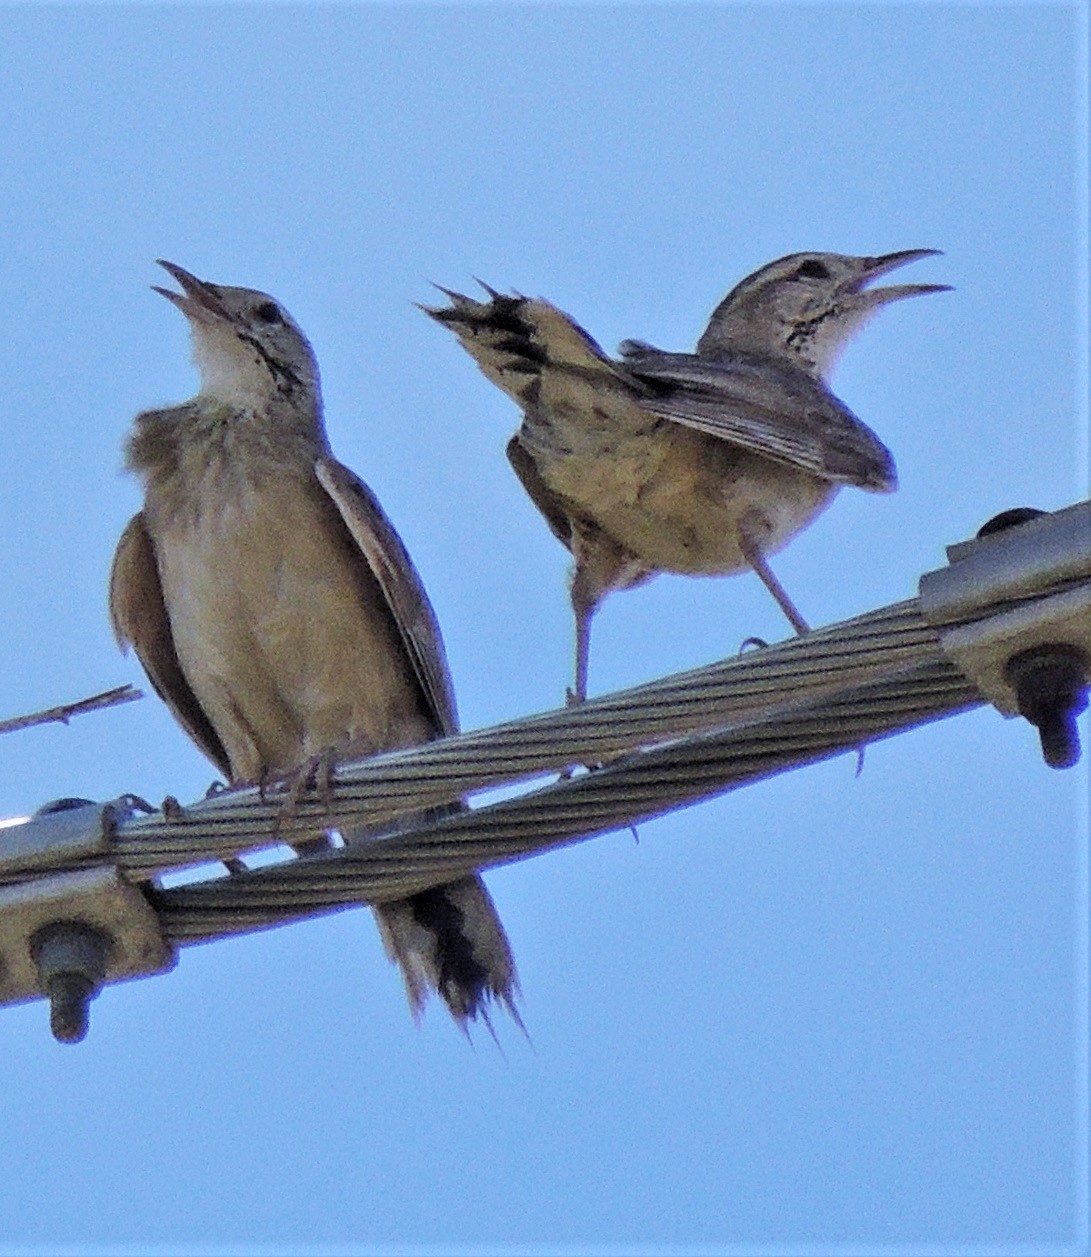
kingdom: Animalia
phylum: Chordata
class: Aves
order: Passeriformes
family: Furnariidae
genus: Anumbius
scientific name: Anumbius annumbi
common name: Firewood-gatherer
